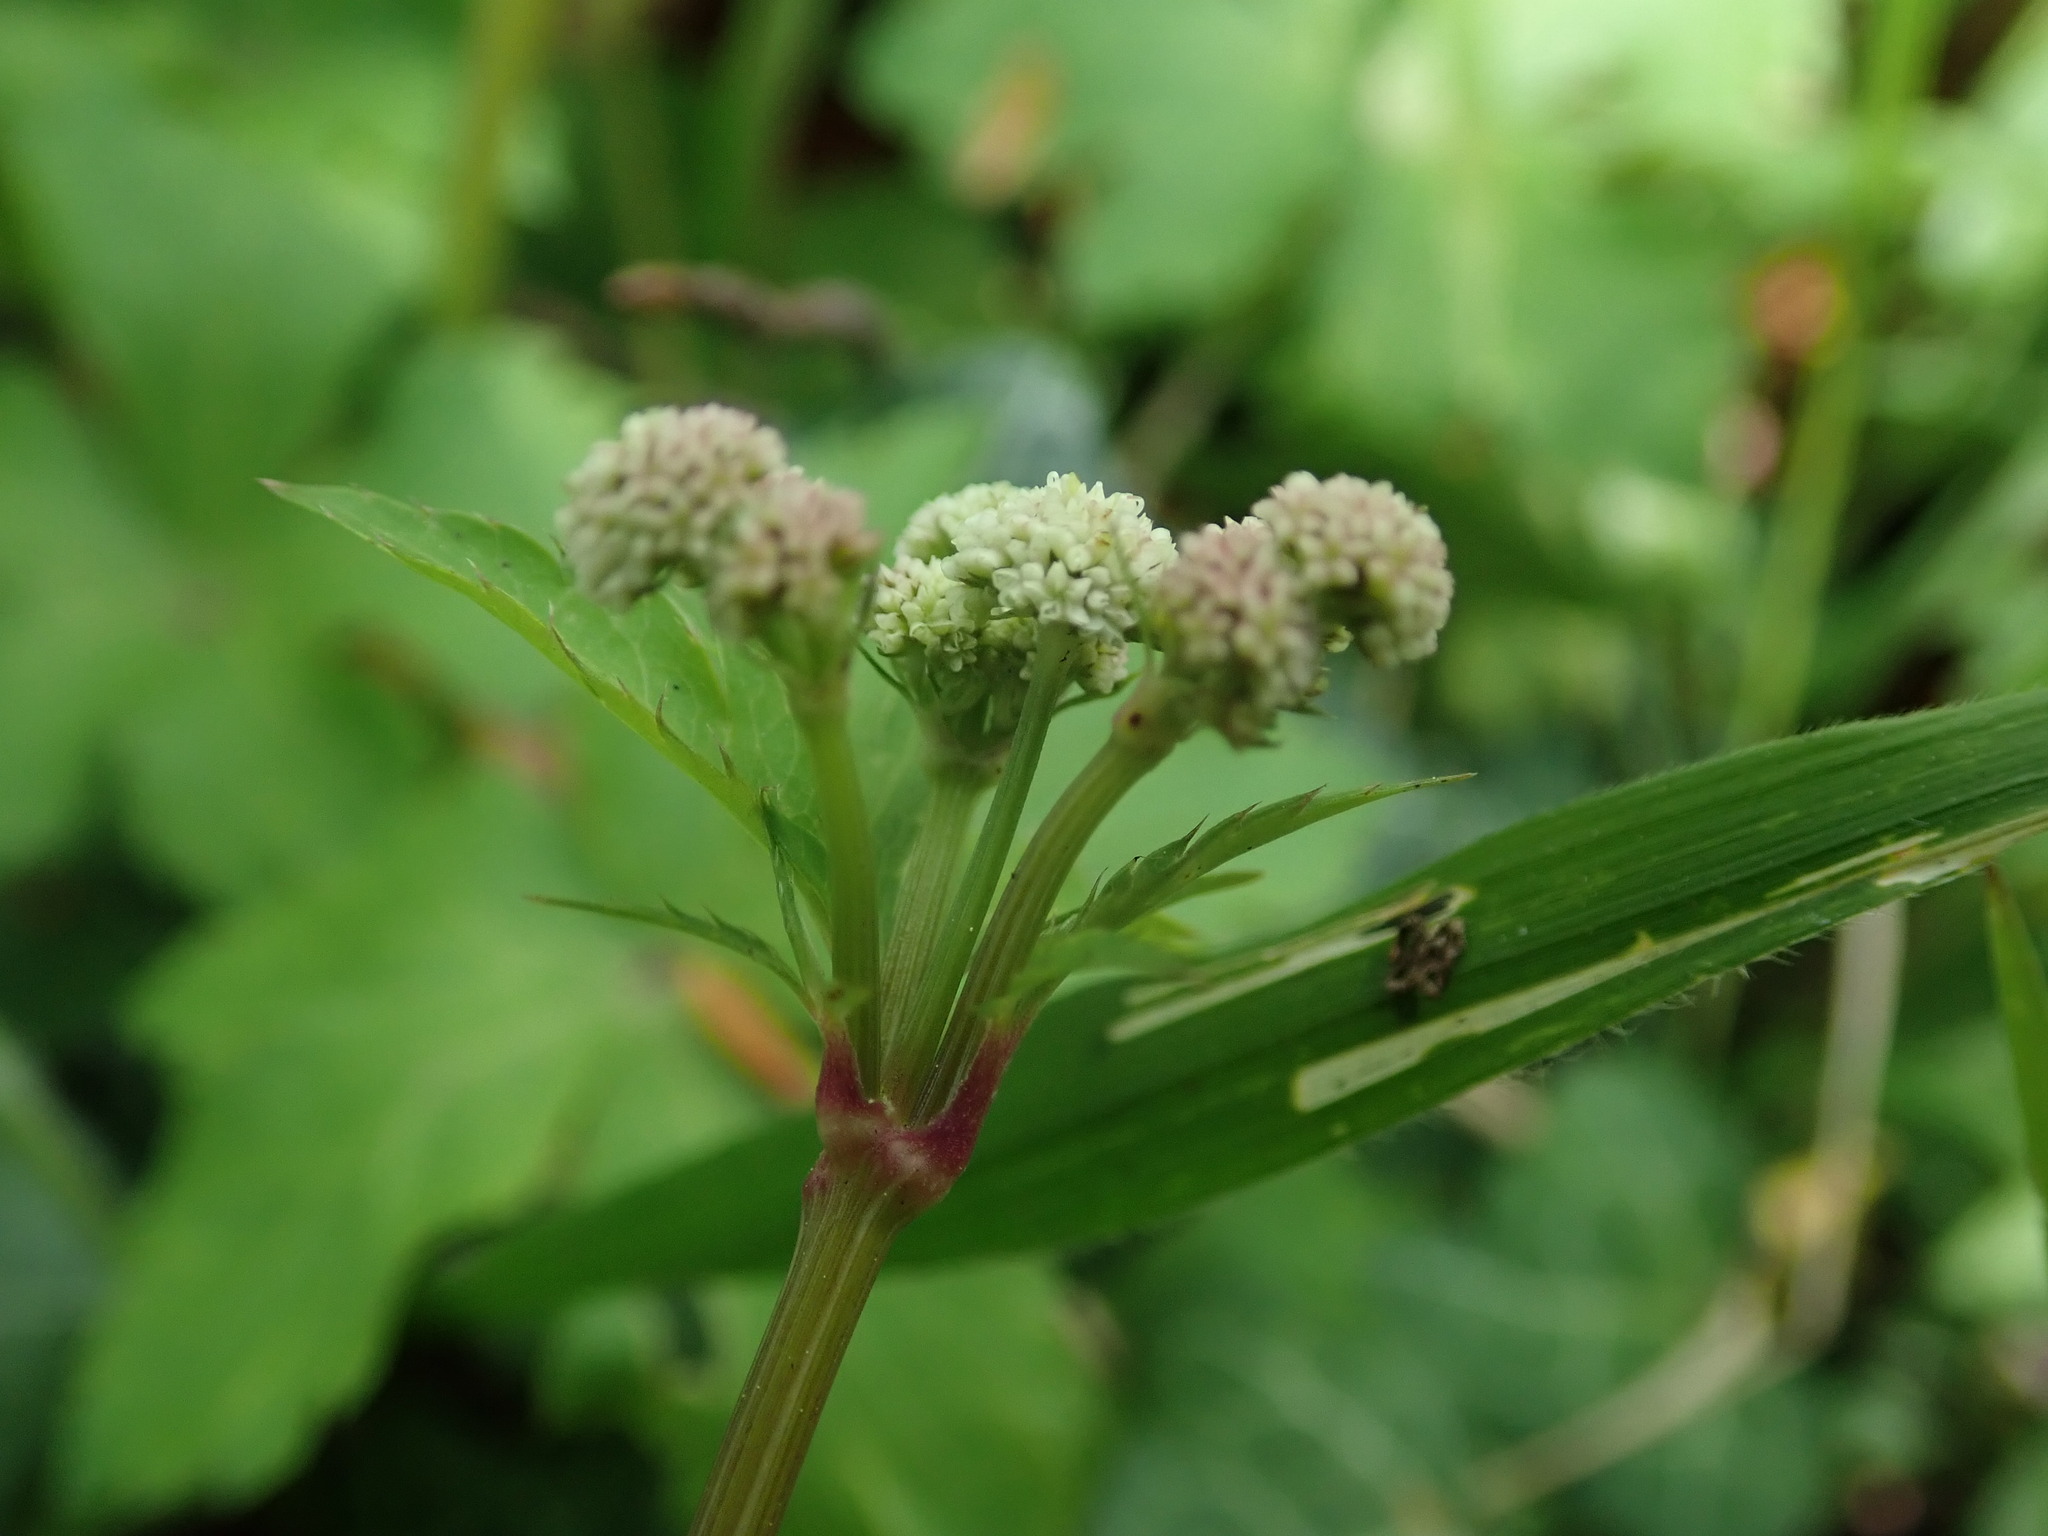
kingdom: Plantae
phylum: Tracheophyta
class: Magnoliopsida
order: Apiales
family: Apiaceae
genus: Sanicula
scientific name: Sanicula europaea
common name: Sanicle
